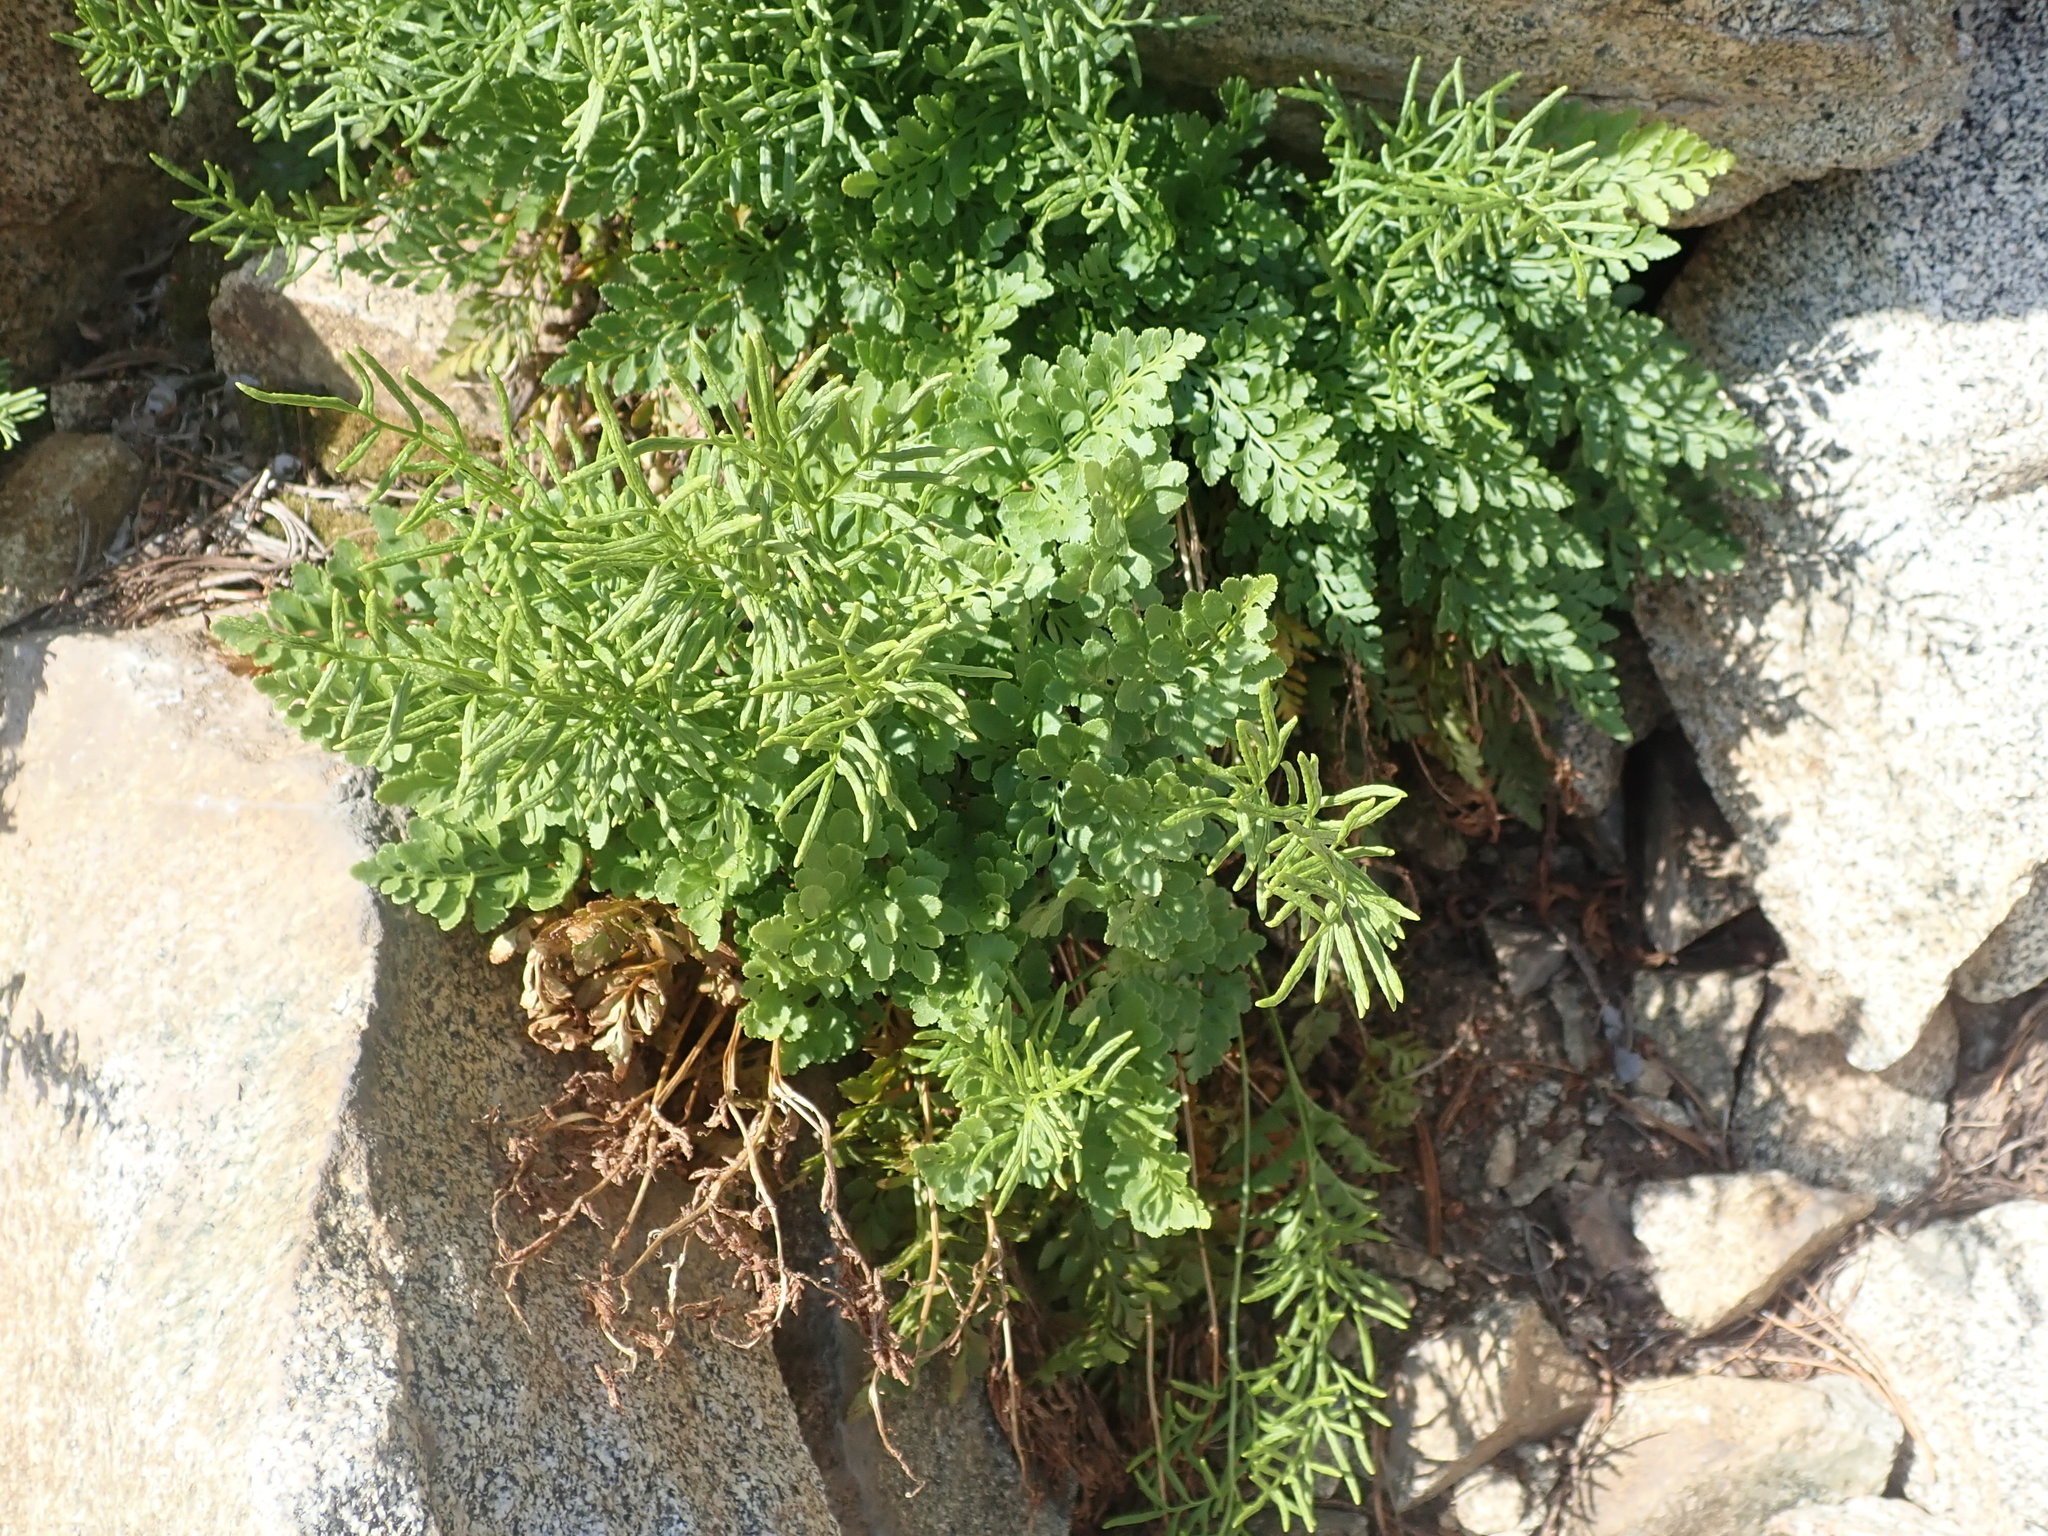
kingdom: Plantae
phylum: Tracheophyta
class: Polypodiopsida
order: Polypodiales
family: Pteridaceae
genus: Cryptogramma
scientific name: Cryptogramma acrostichoides
